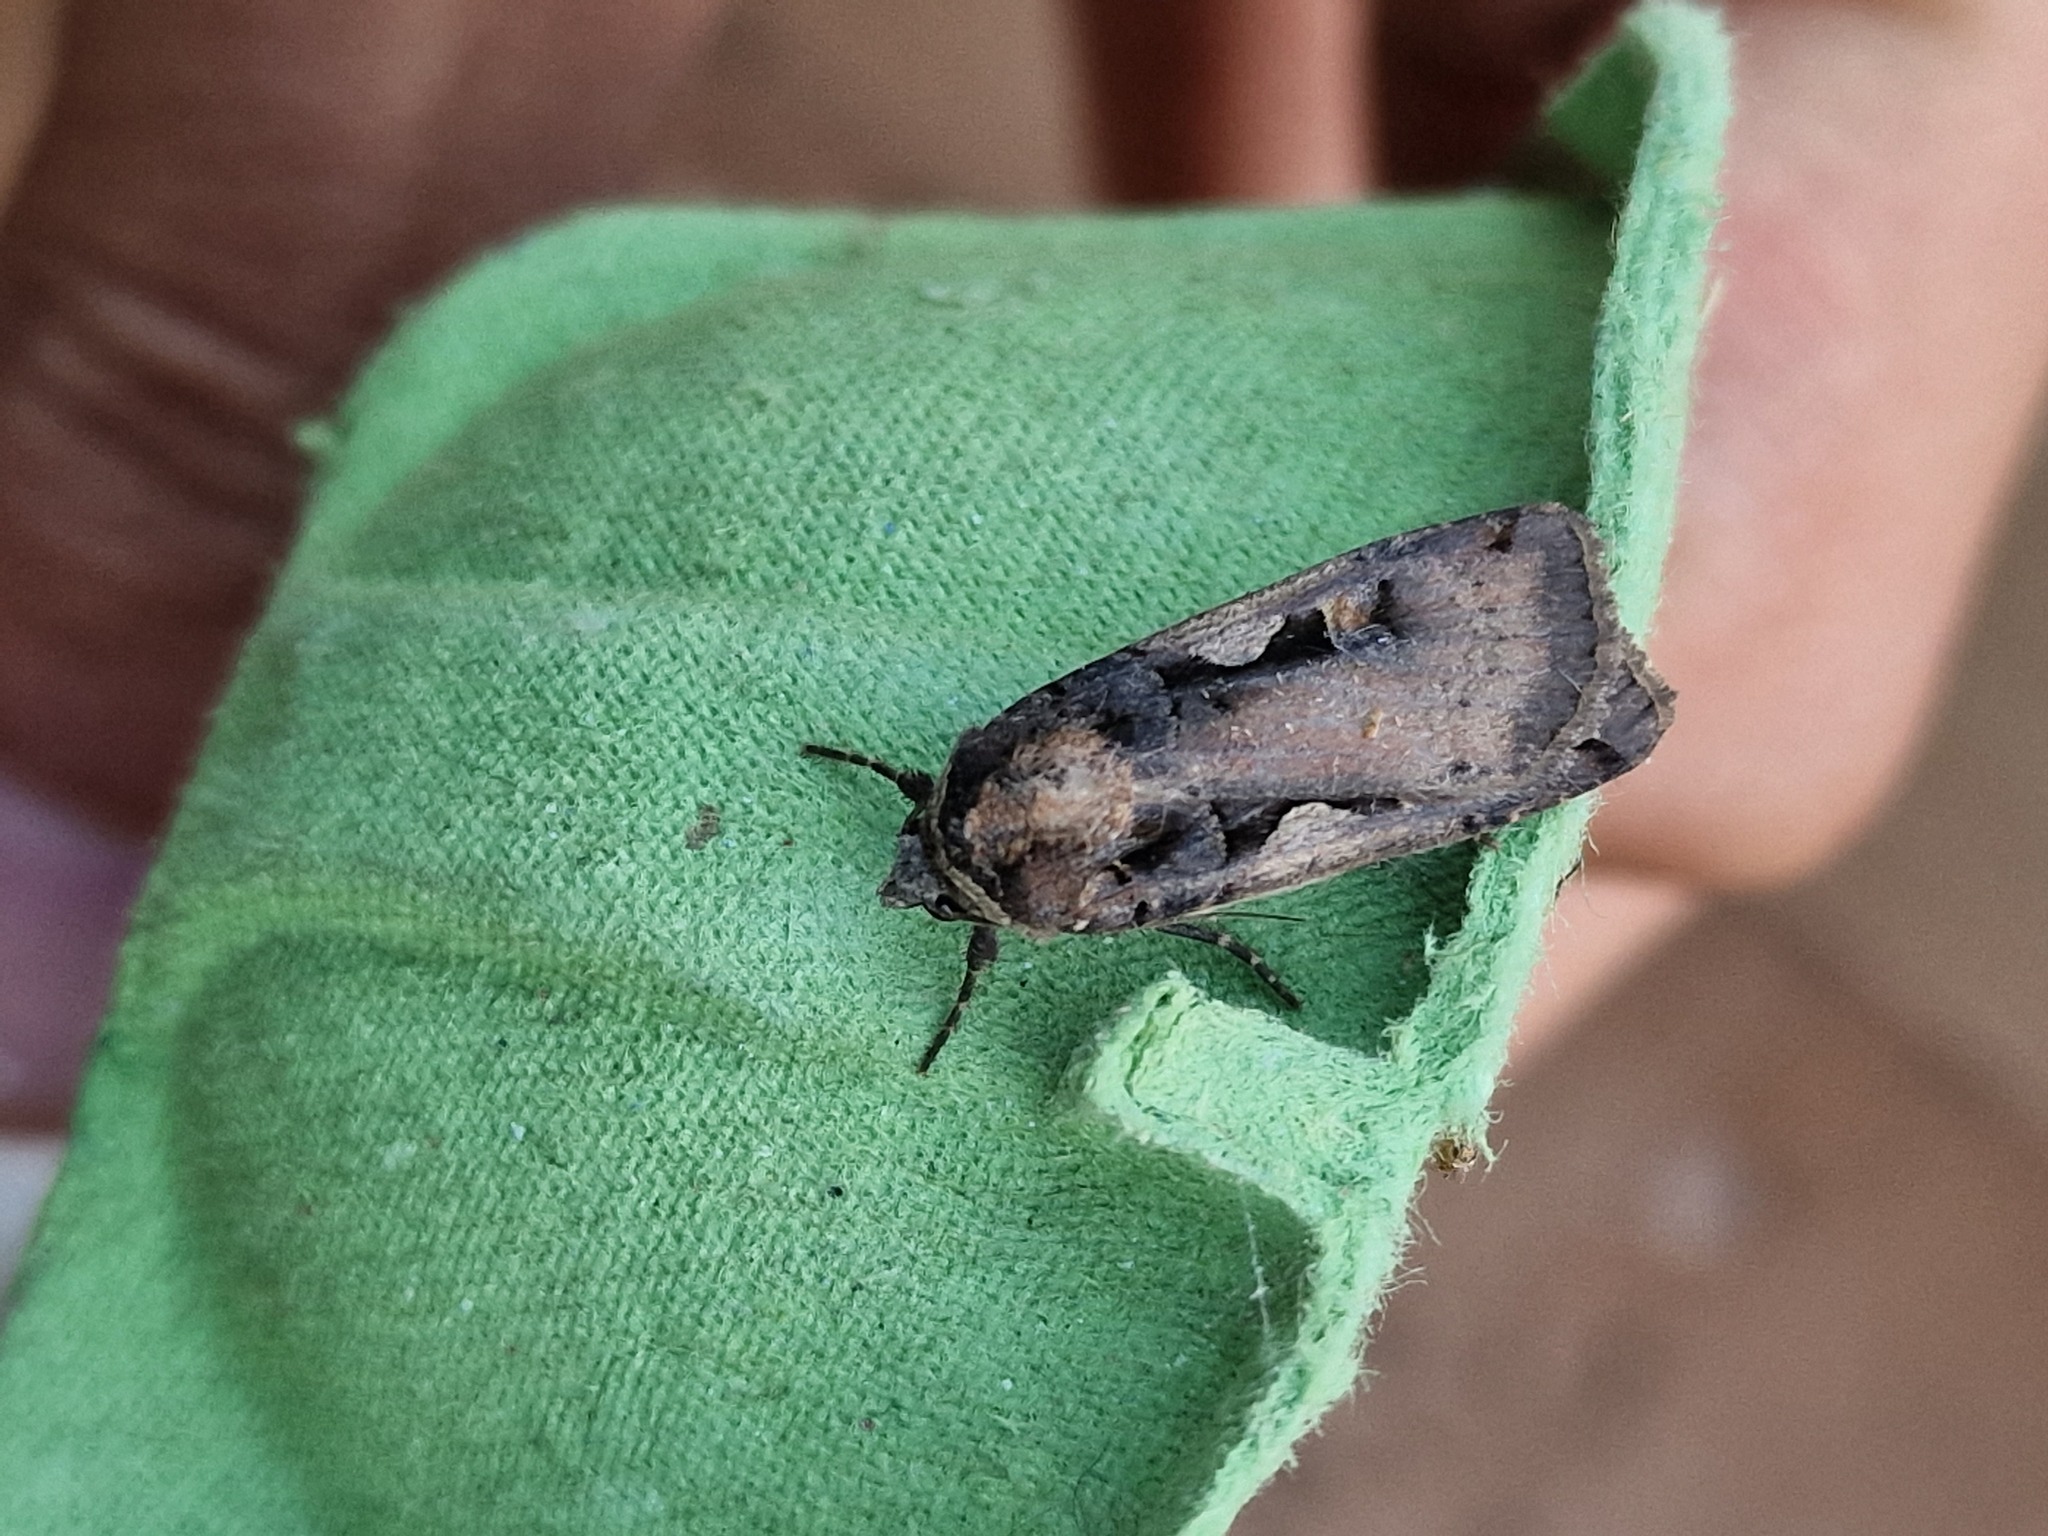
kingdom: Animalia
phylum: Arthropoda
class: Insecta
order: Lepidoptera
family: Noctuidae
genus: Xestia
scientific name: Xestia c-nigrum
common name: Setaceous hebrew character
